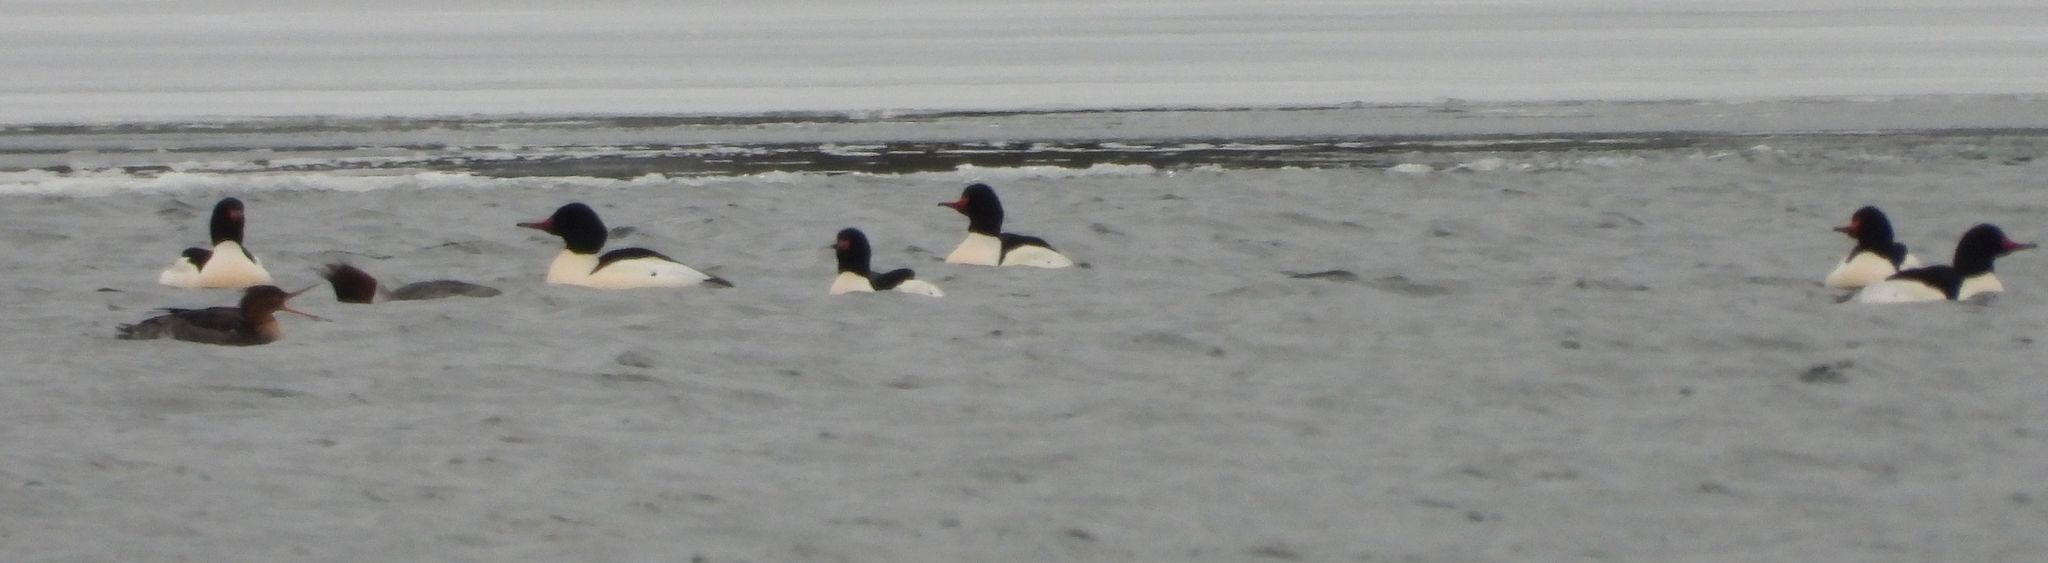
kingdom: Animalia
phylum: Chordata
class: Aves
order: Anseriformes
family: Anatidae
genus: Mergus
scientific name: Mergus merganser
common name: Common merganser
